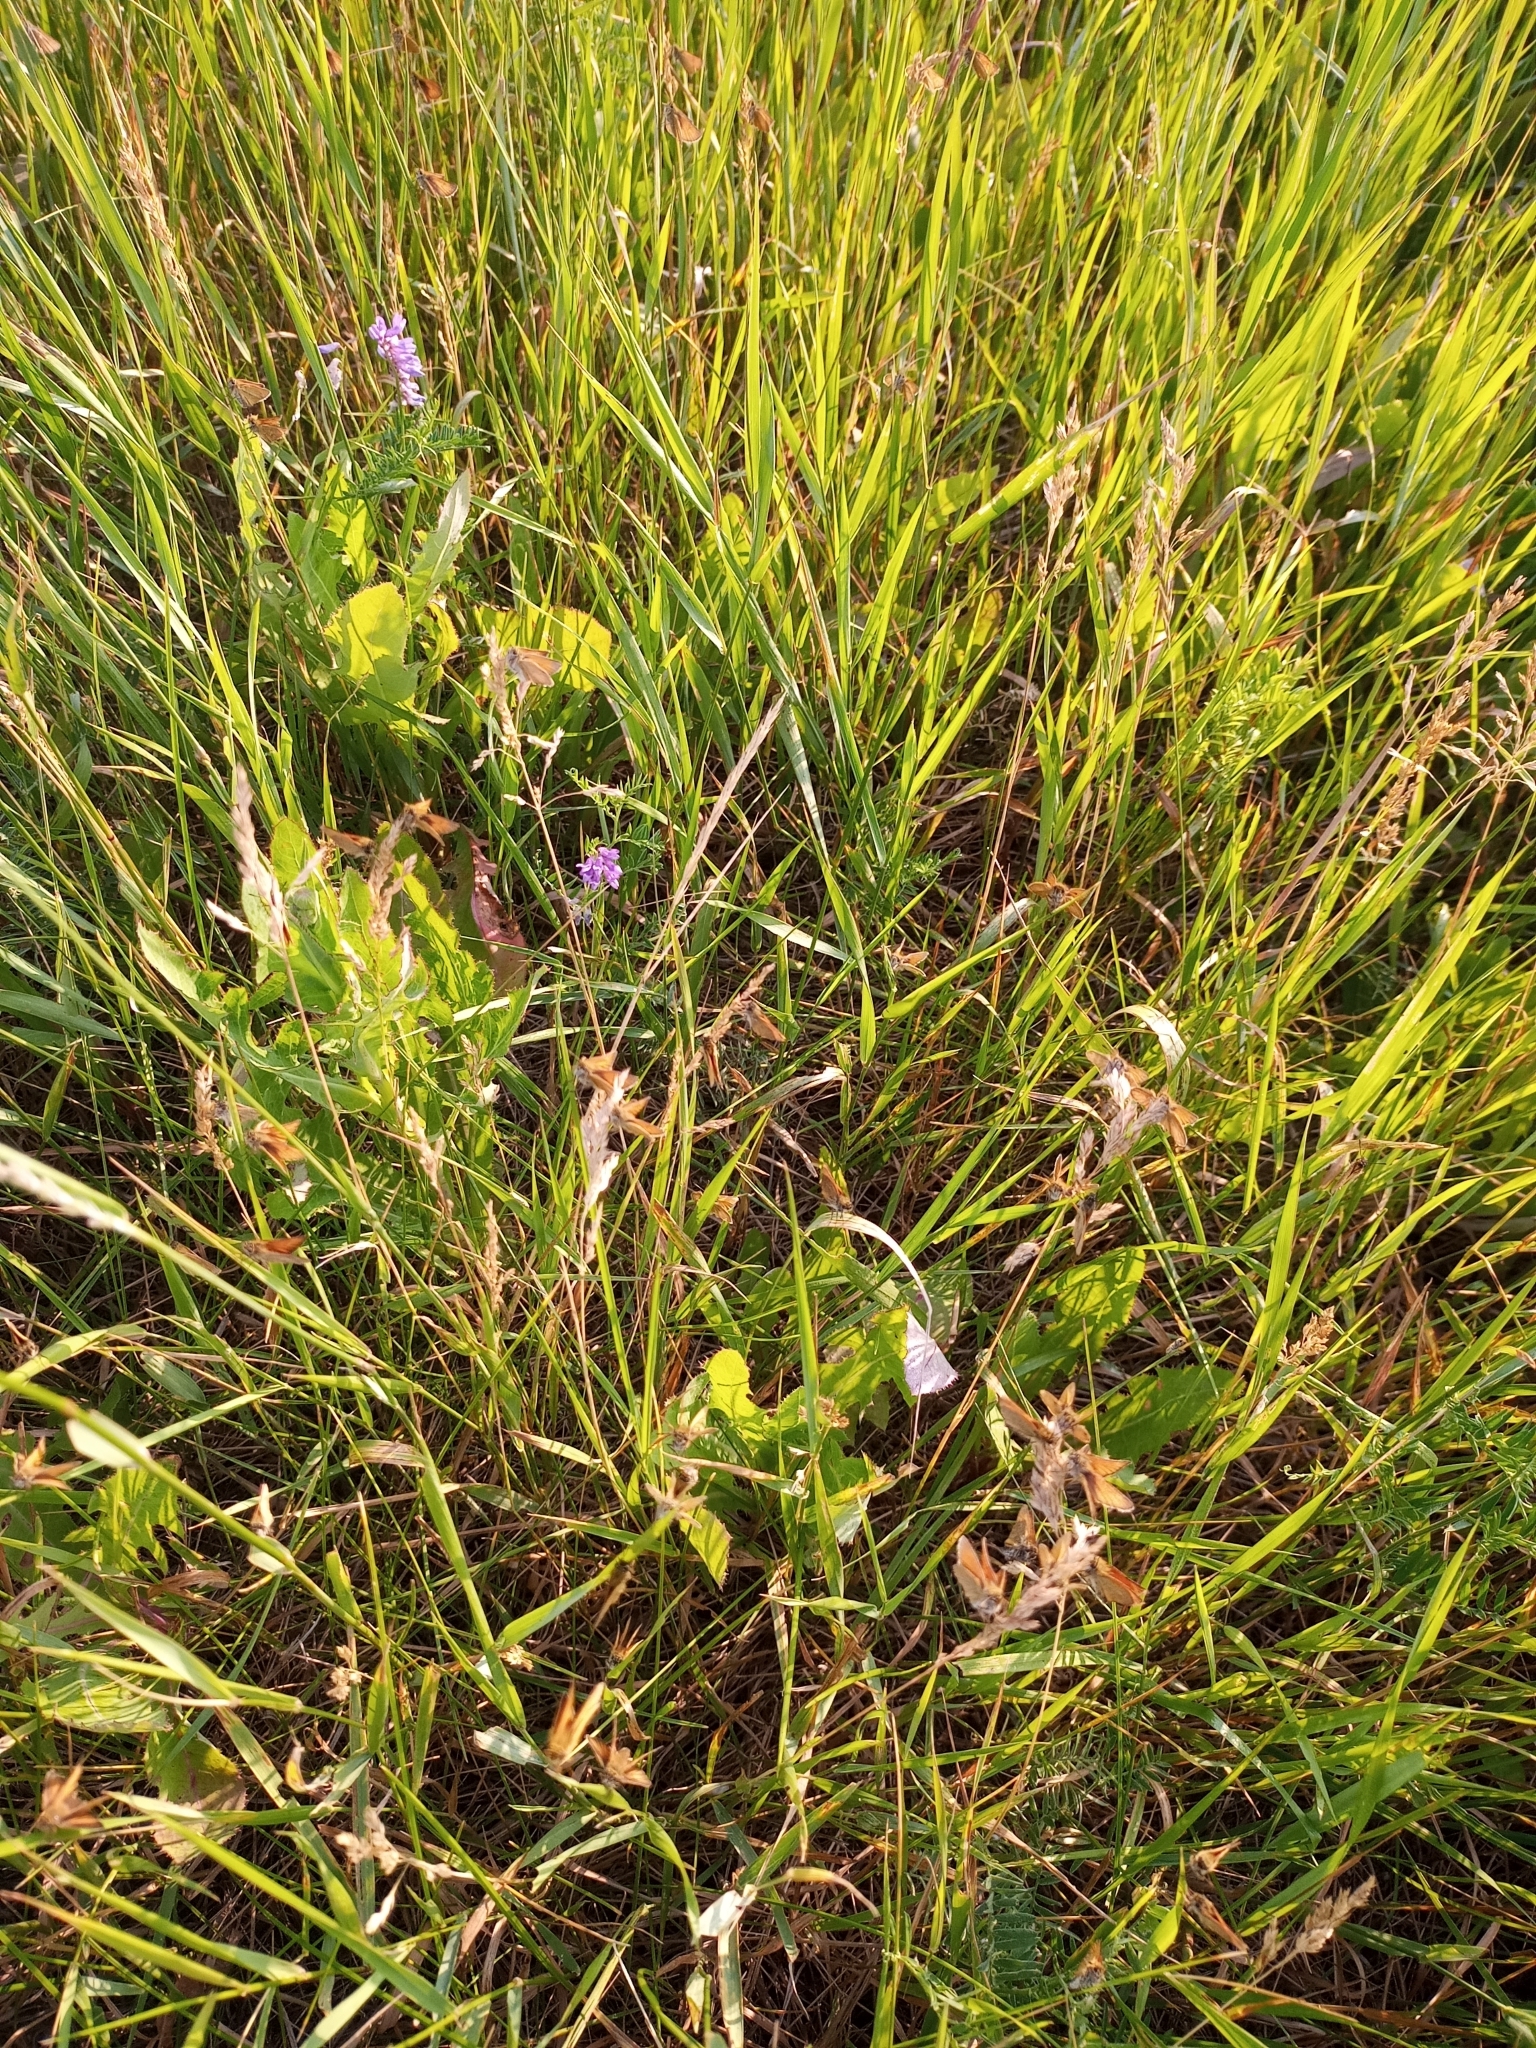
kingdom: Animalia
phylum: Arthropoda
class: Insecta
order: Lepidoptera
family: Hesperiidae
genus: Thymelicus
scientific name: Thymelicus lineola
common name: Essex skipper
